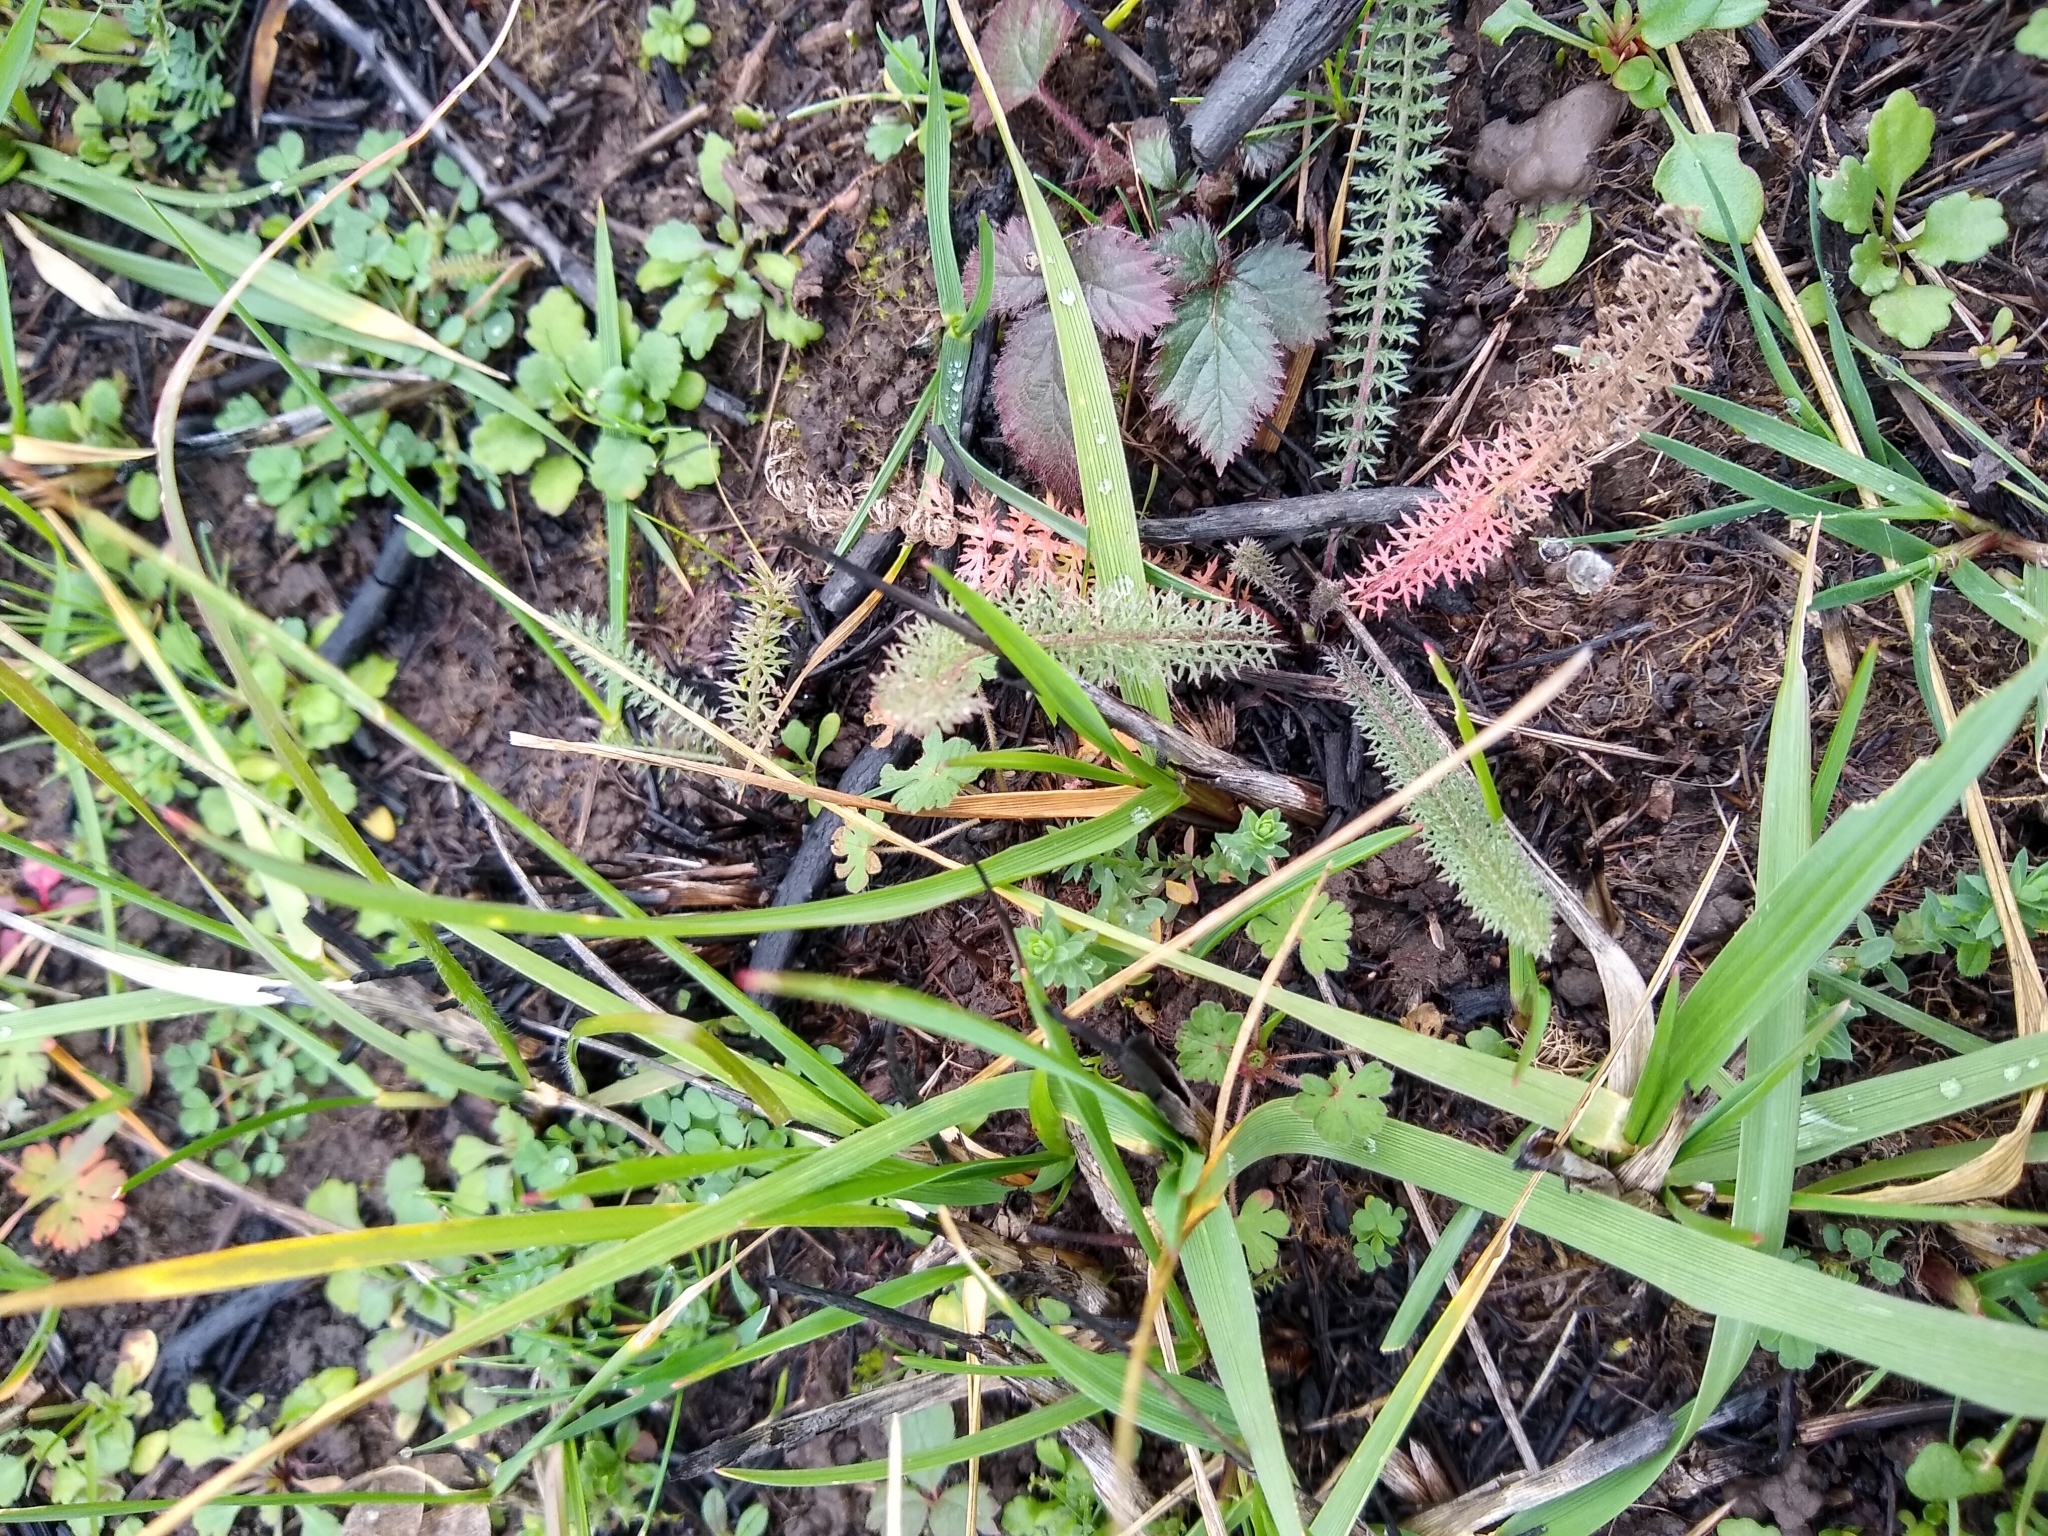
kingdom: Plantae
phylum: Tracheophyta
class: Magnoliopsida
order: Asterales
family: Asteraceae
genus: Achillea
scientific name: Achillea millefolium
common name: Yarrow
